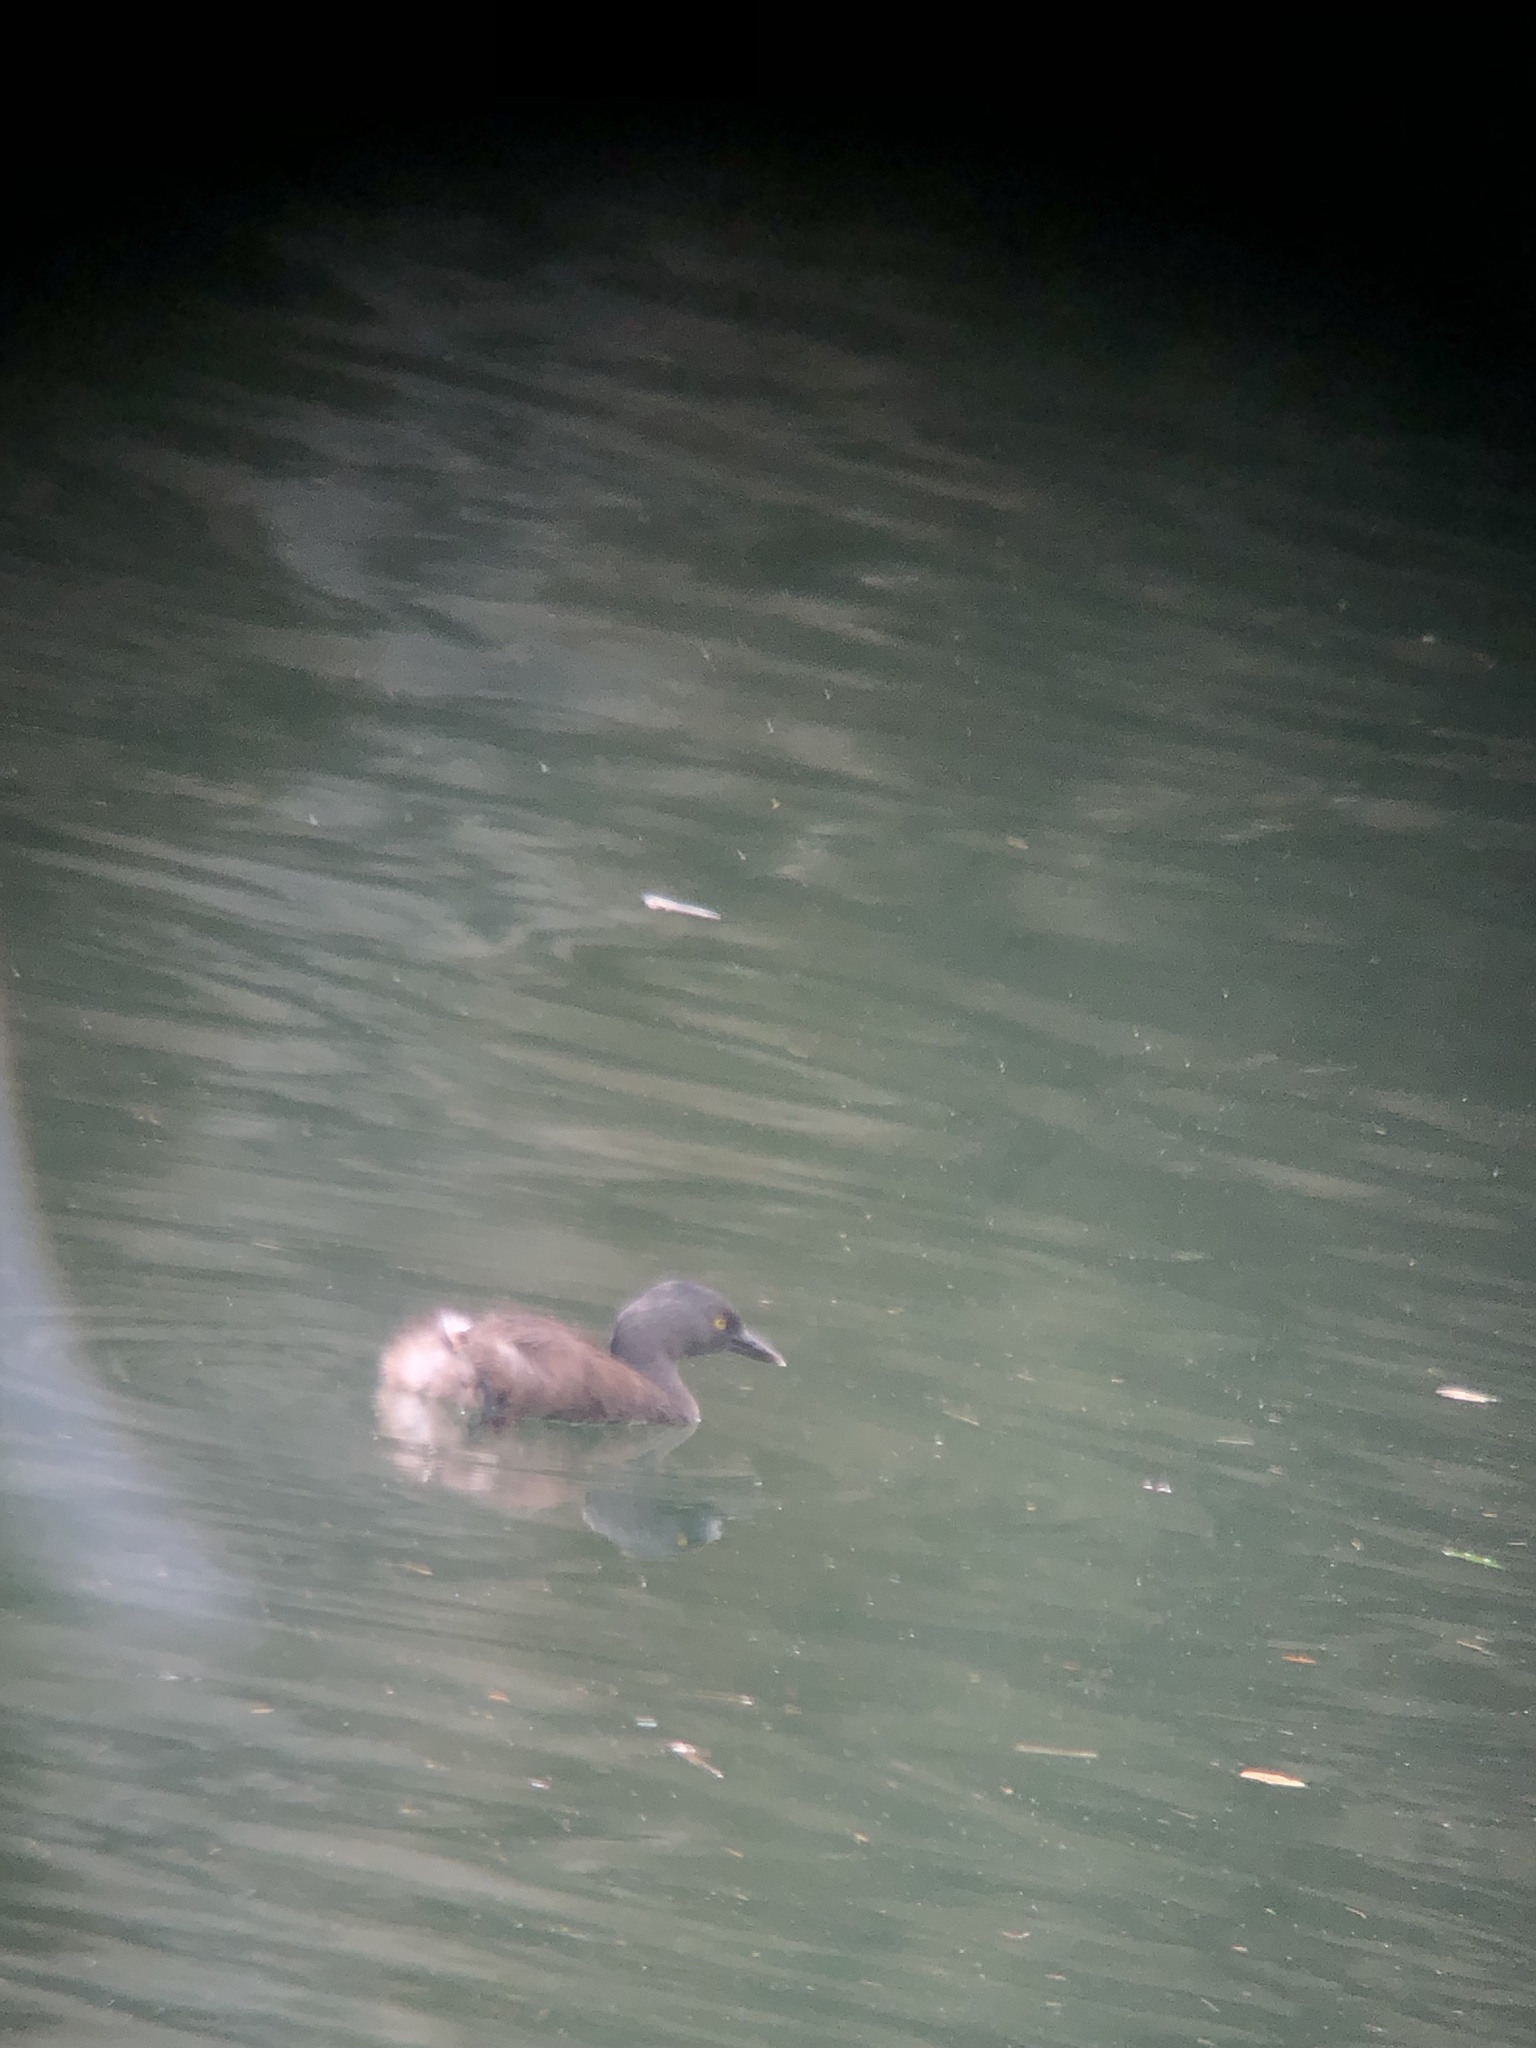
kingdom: Animalia
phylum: Chordata
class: Aves
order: Podicipediformes
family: Podicipedidae
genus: Tachybaptus
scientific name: Tachybaptus dominicus
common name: Least grebe
